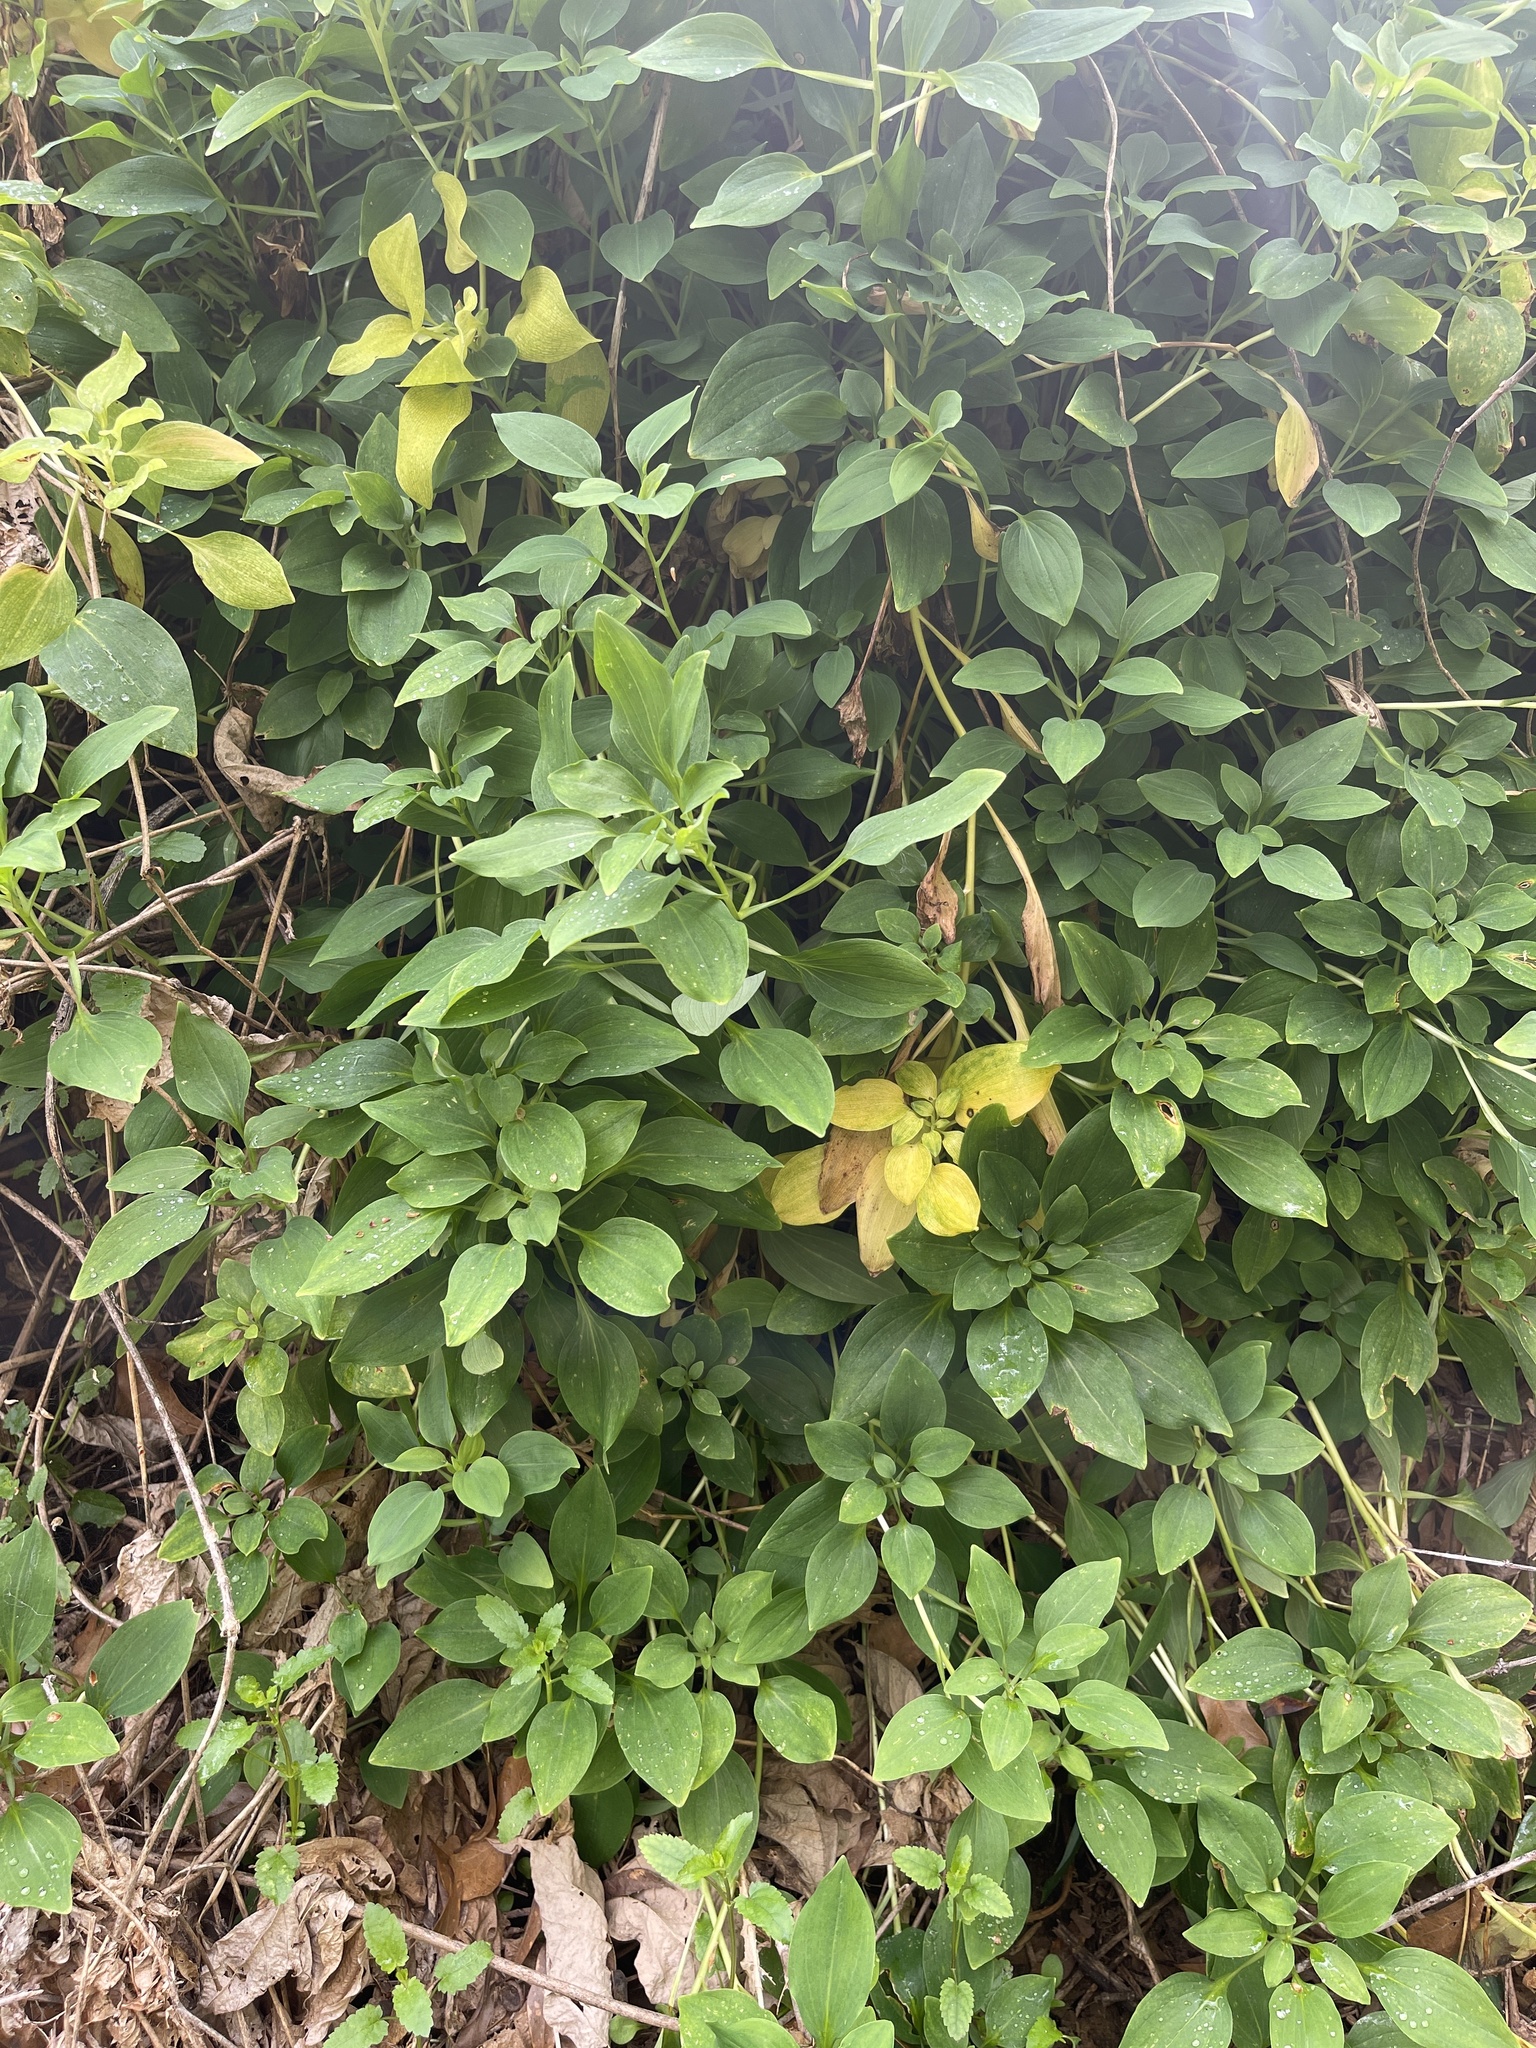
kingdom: Plantae
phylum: Tracheophyta
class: Liliopsida
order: Liliales
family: Alstroemeriaceae
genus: Alstroemeria
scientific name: Alstroemeria psittacina
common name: Peruvian-lily
